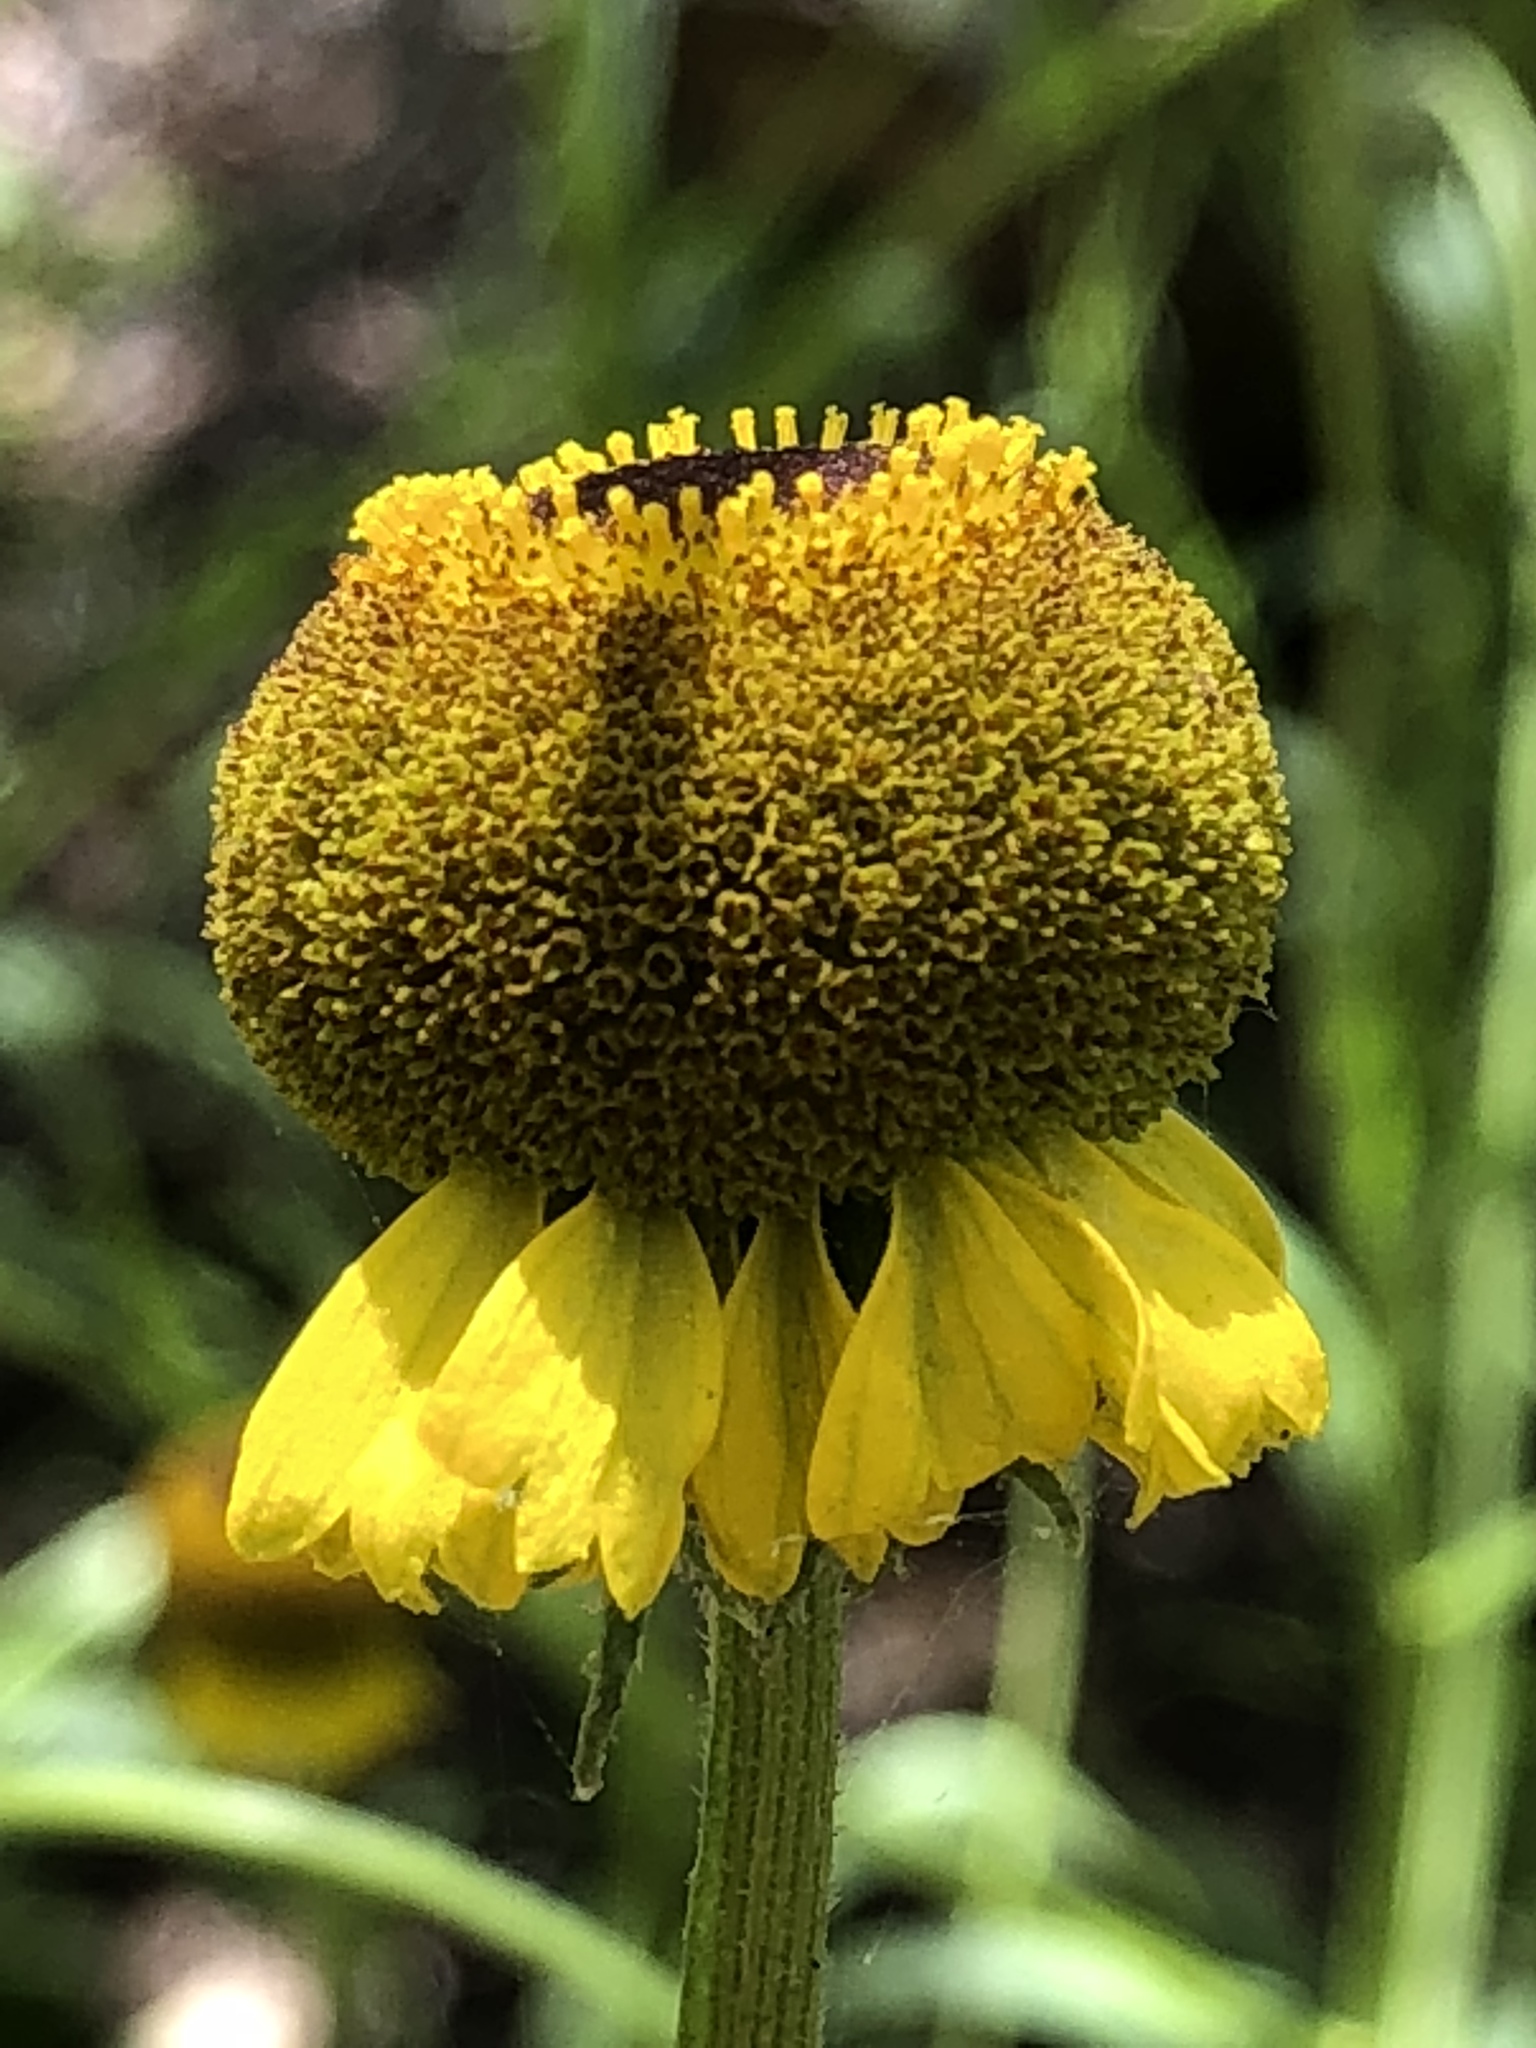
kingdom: Plantae
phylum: Tracheophyta
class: Magnoliopsida
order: Asterales
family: Asteraceae
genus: Helenium
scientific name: Helenium puberulum
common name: Sneezewort
